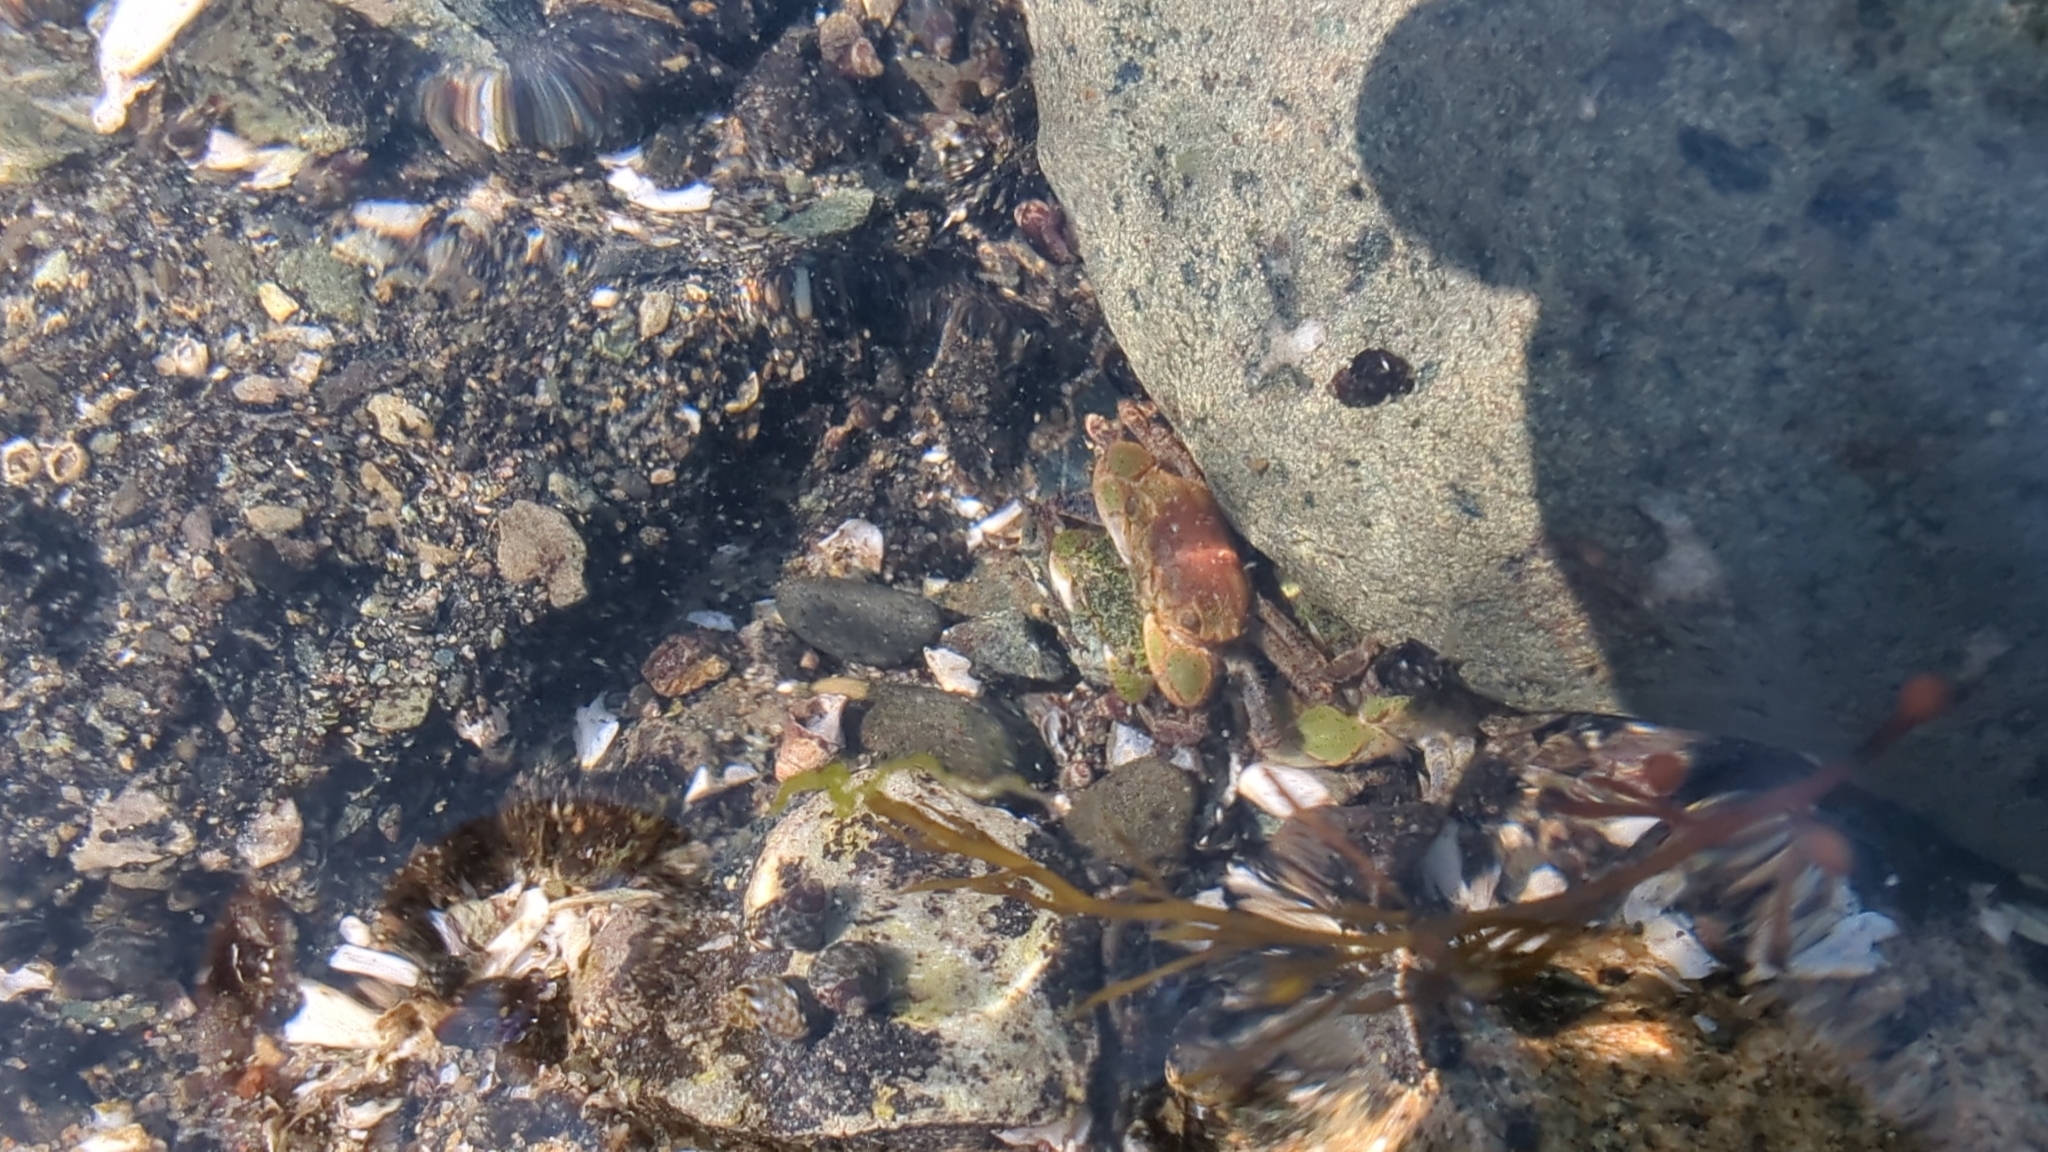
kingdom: Animalia
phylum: Arthropoda
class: Malacostraca
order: Decapoda
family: Varunidae
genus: Hemigrapsus
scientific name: Hemigrapsus oregonensis
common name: Yellow shore crab
